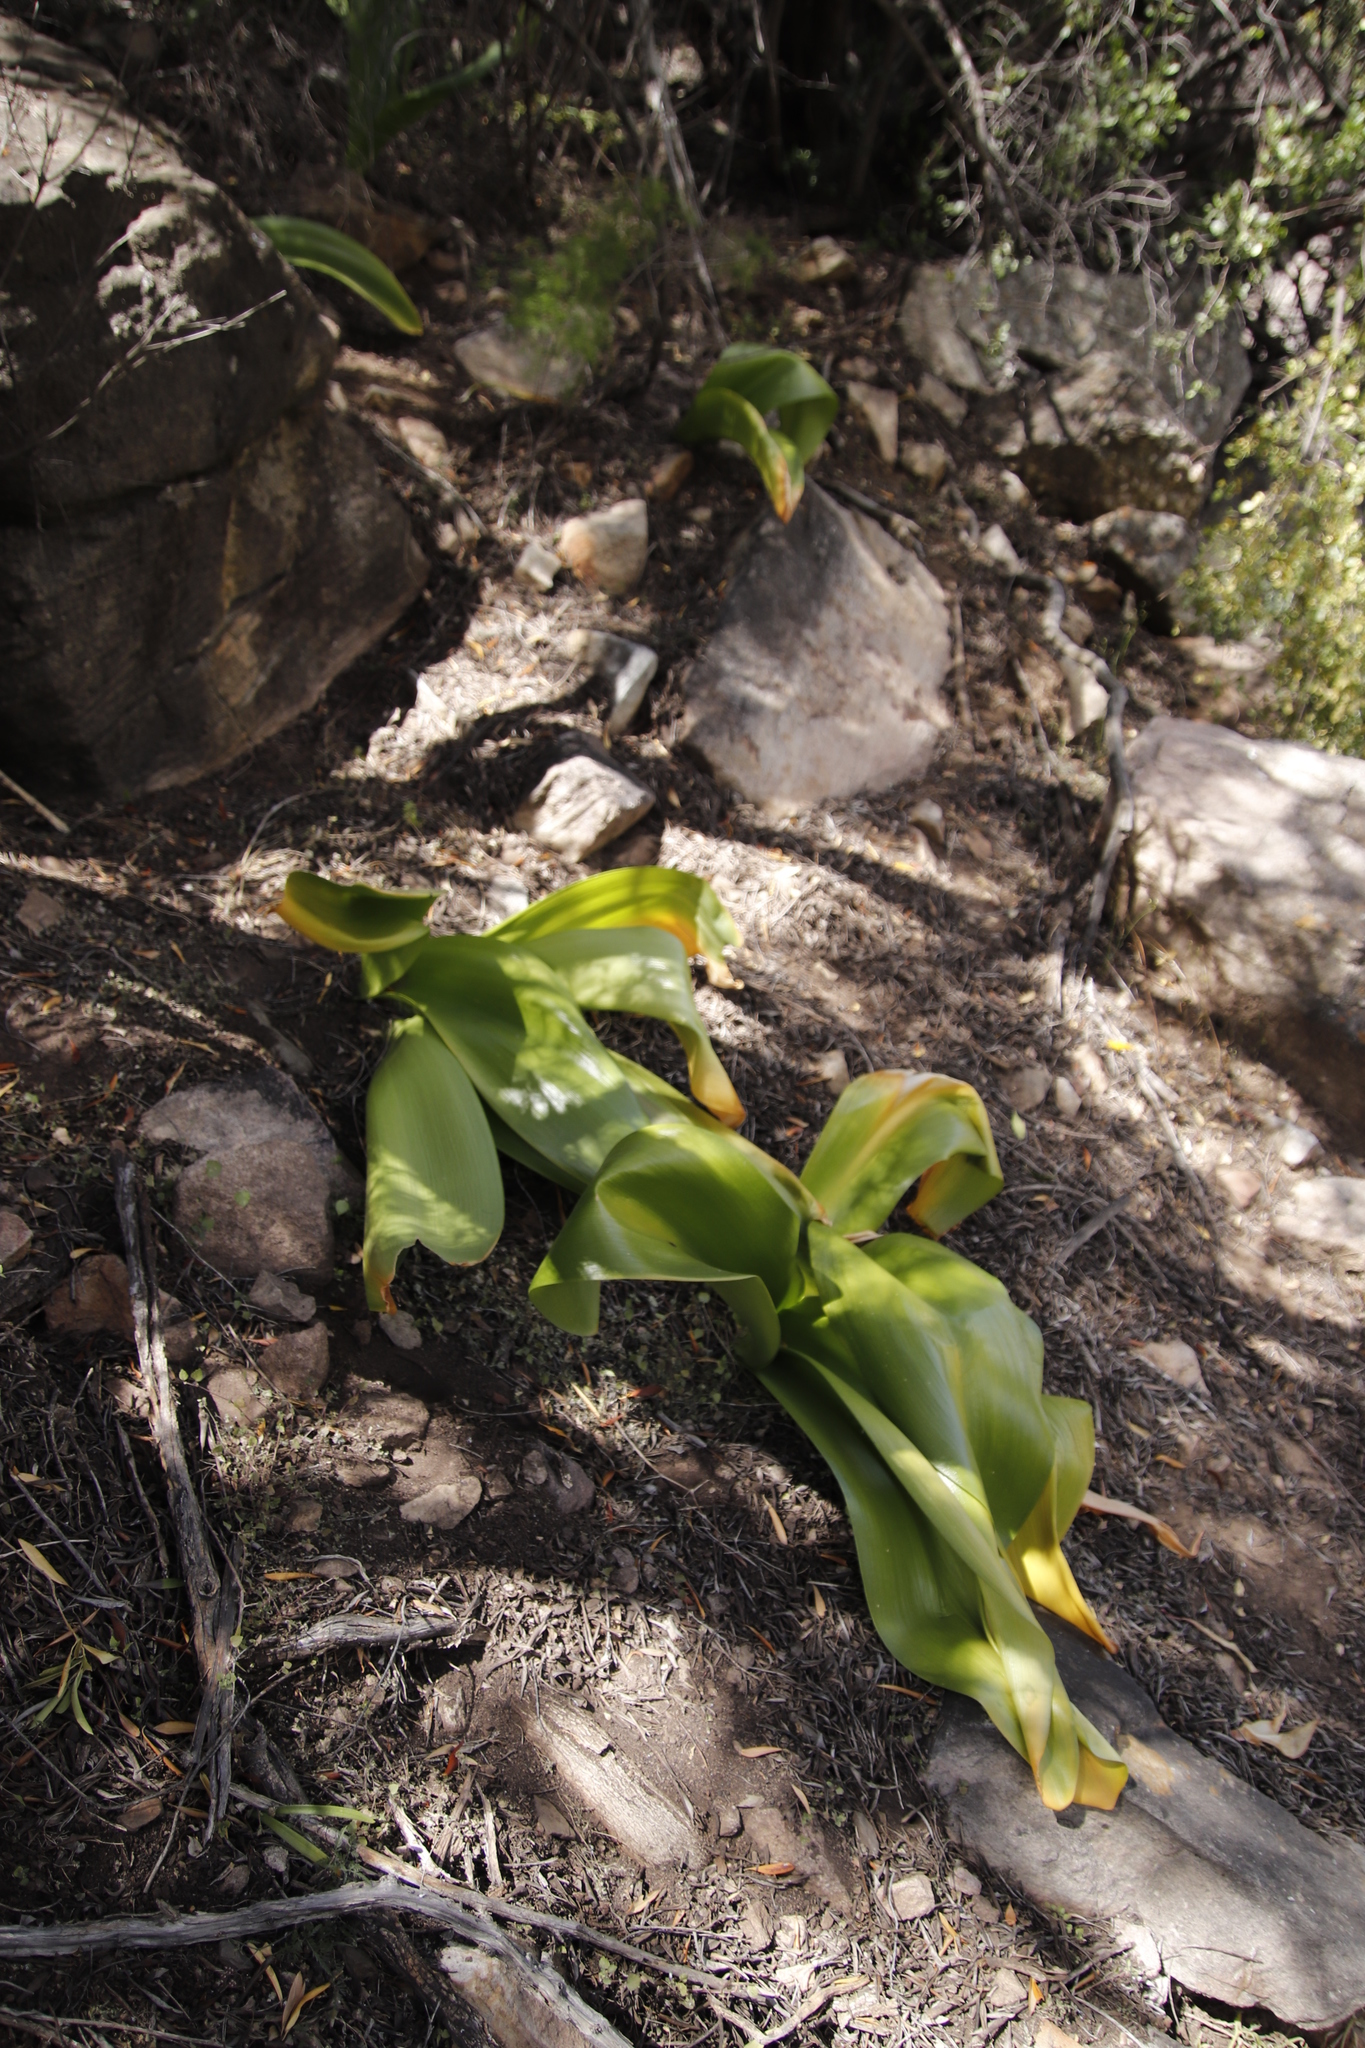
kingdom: Plantae
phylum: Tracheophyta
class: Liliopsida
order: Asparagales
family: Amaryllidaceae
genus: Haemanthus
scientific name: Haemanthus coccineus
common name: Cape-tulip
